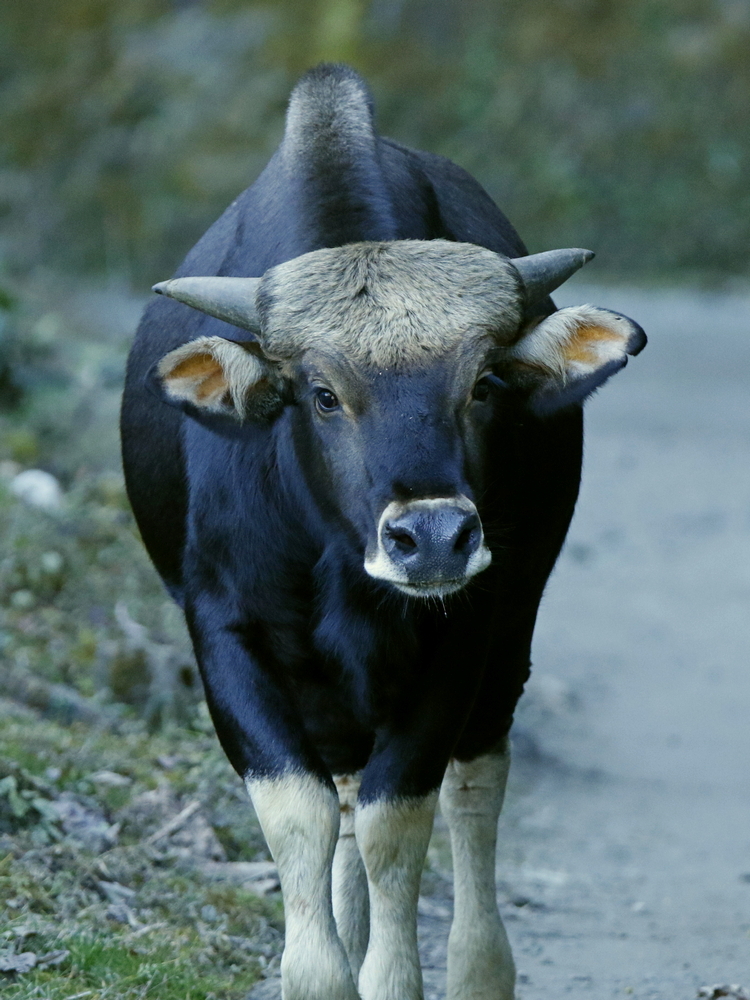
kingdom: Animalia
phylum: Chordata
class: Mammalia
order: Artiodactyla
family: Bovidae
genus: Bos
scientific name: Bos frontalis
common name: Gaur
